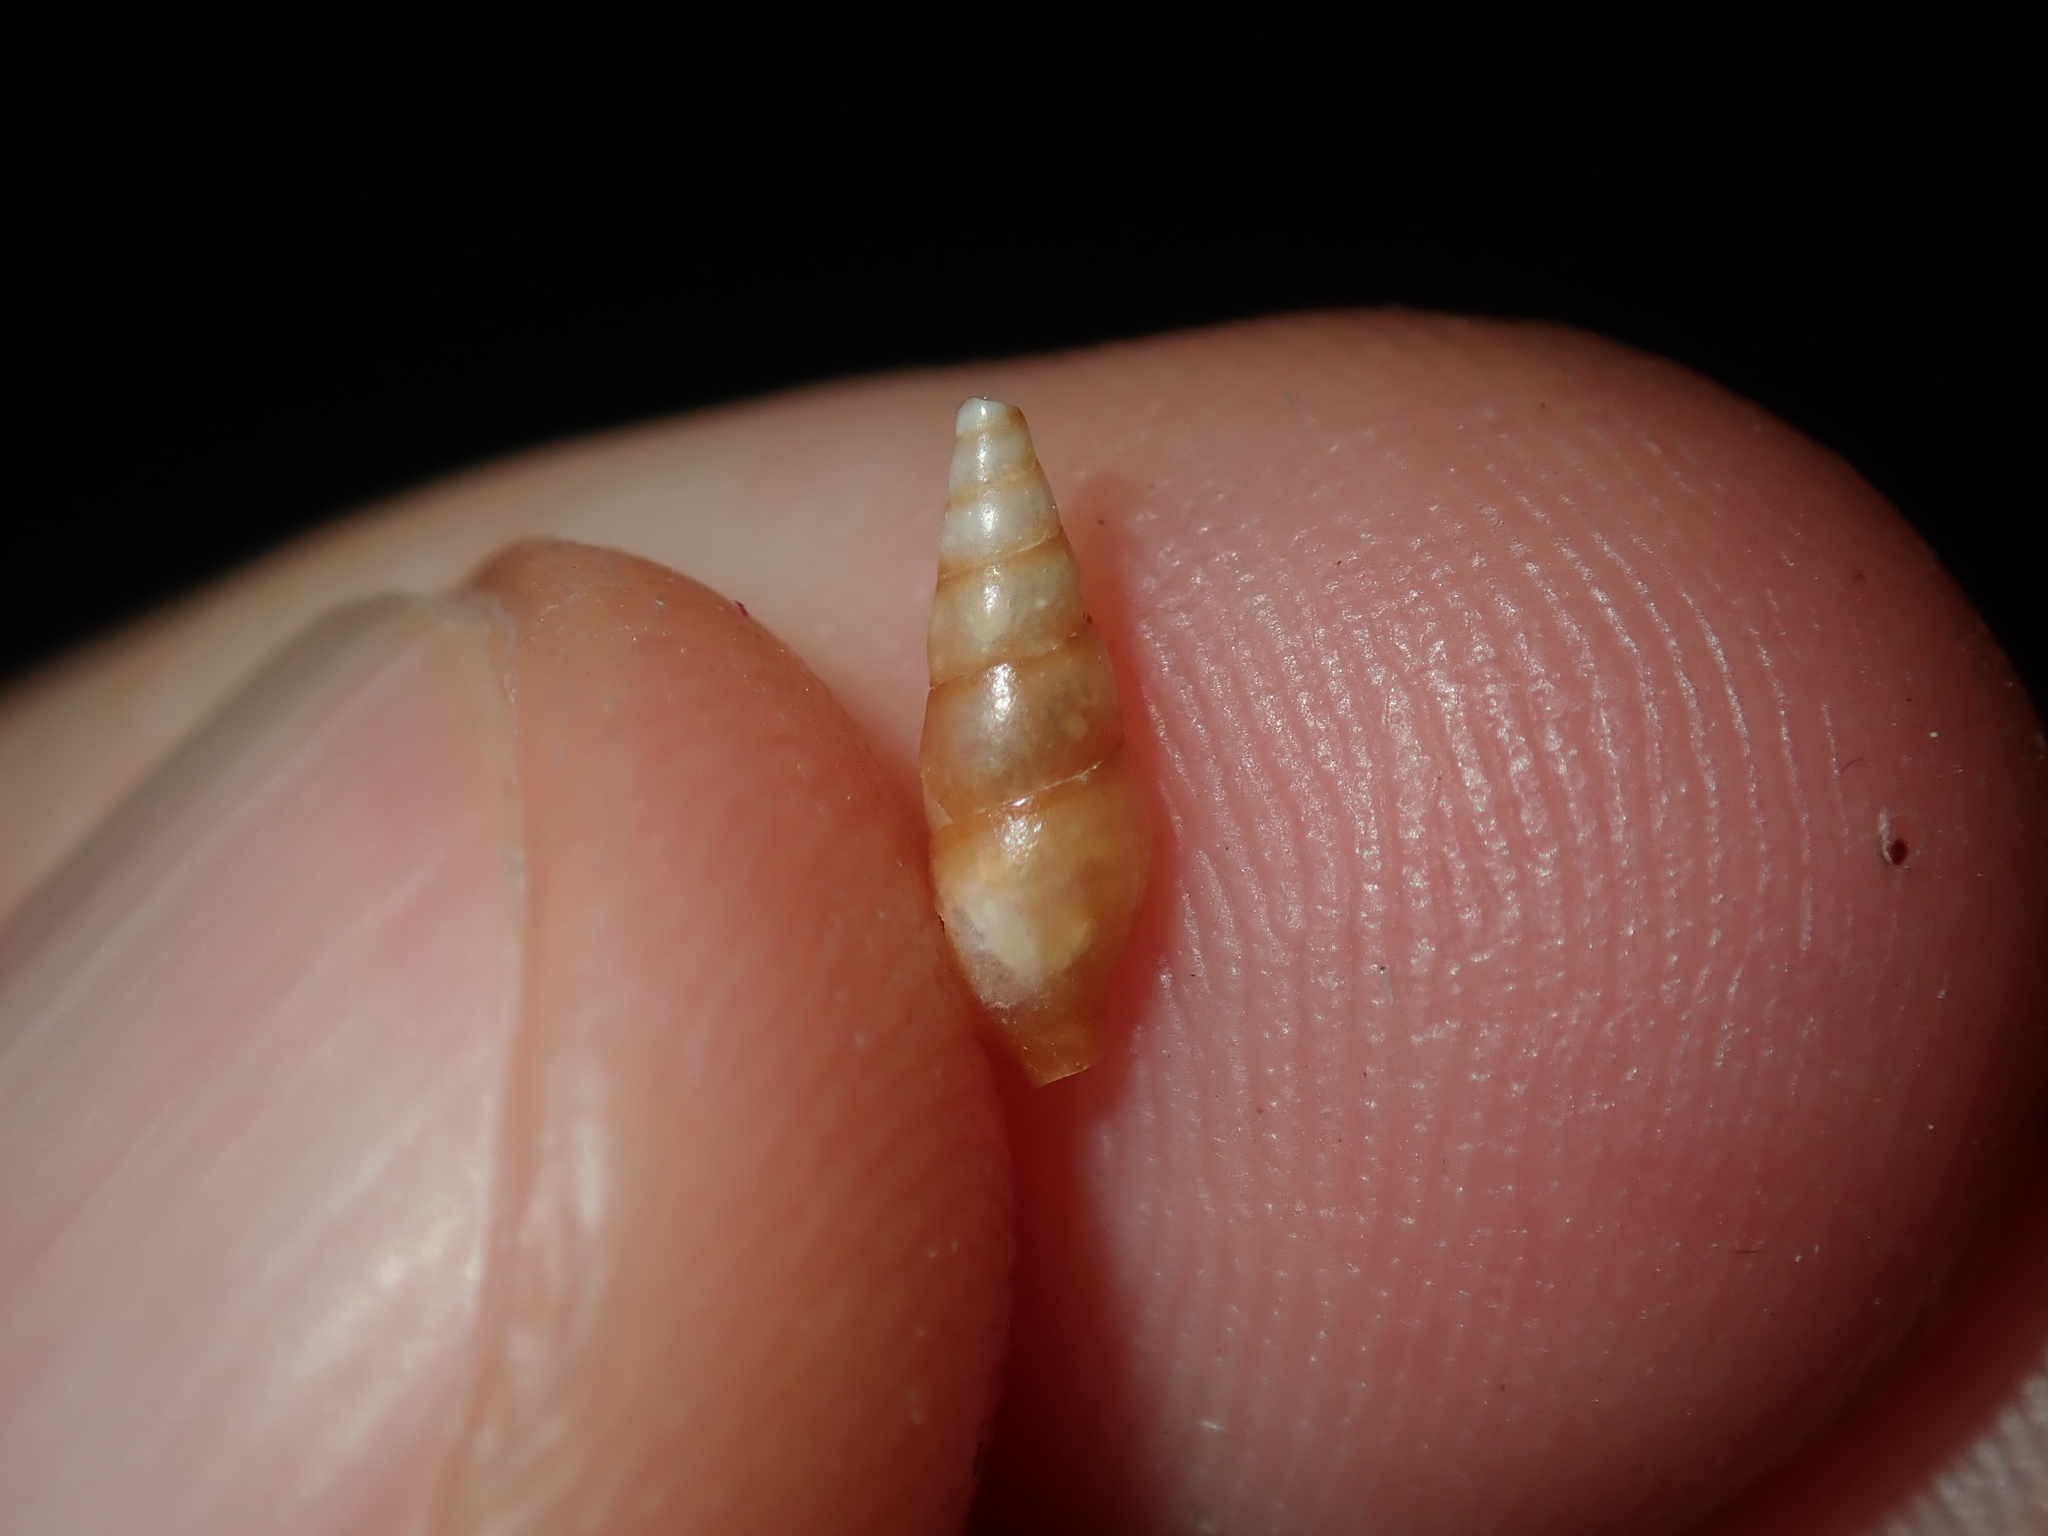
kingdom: Animalia
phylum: Mollusca
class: Gastropoda
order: Neogastropoda
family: Columbellidae
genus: Zella
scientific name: Zella beddomei
